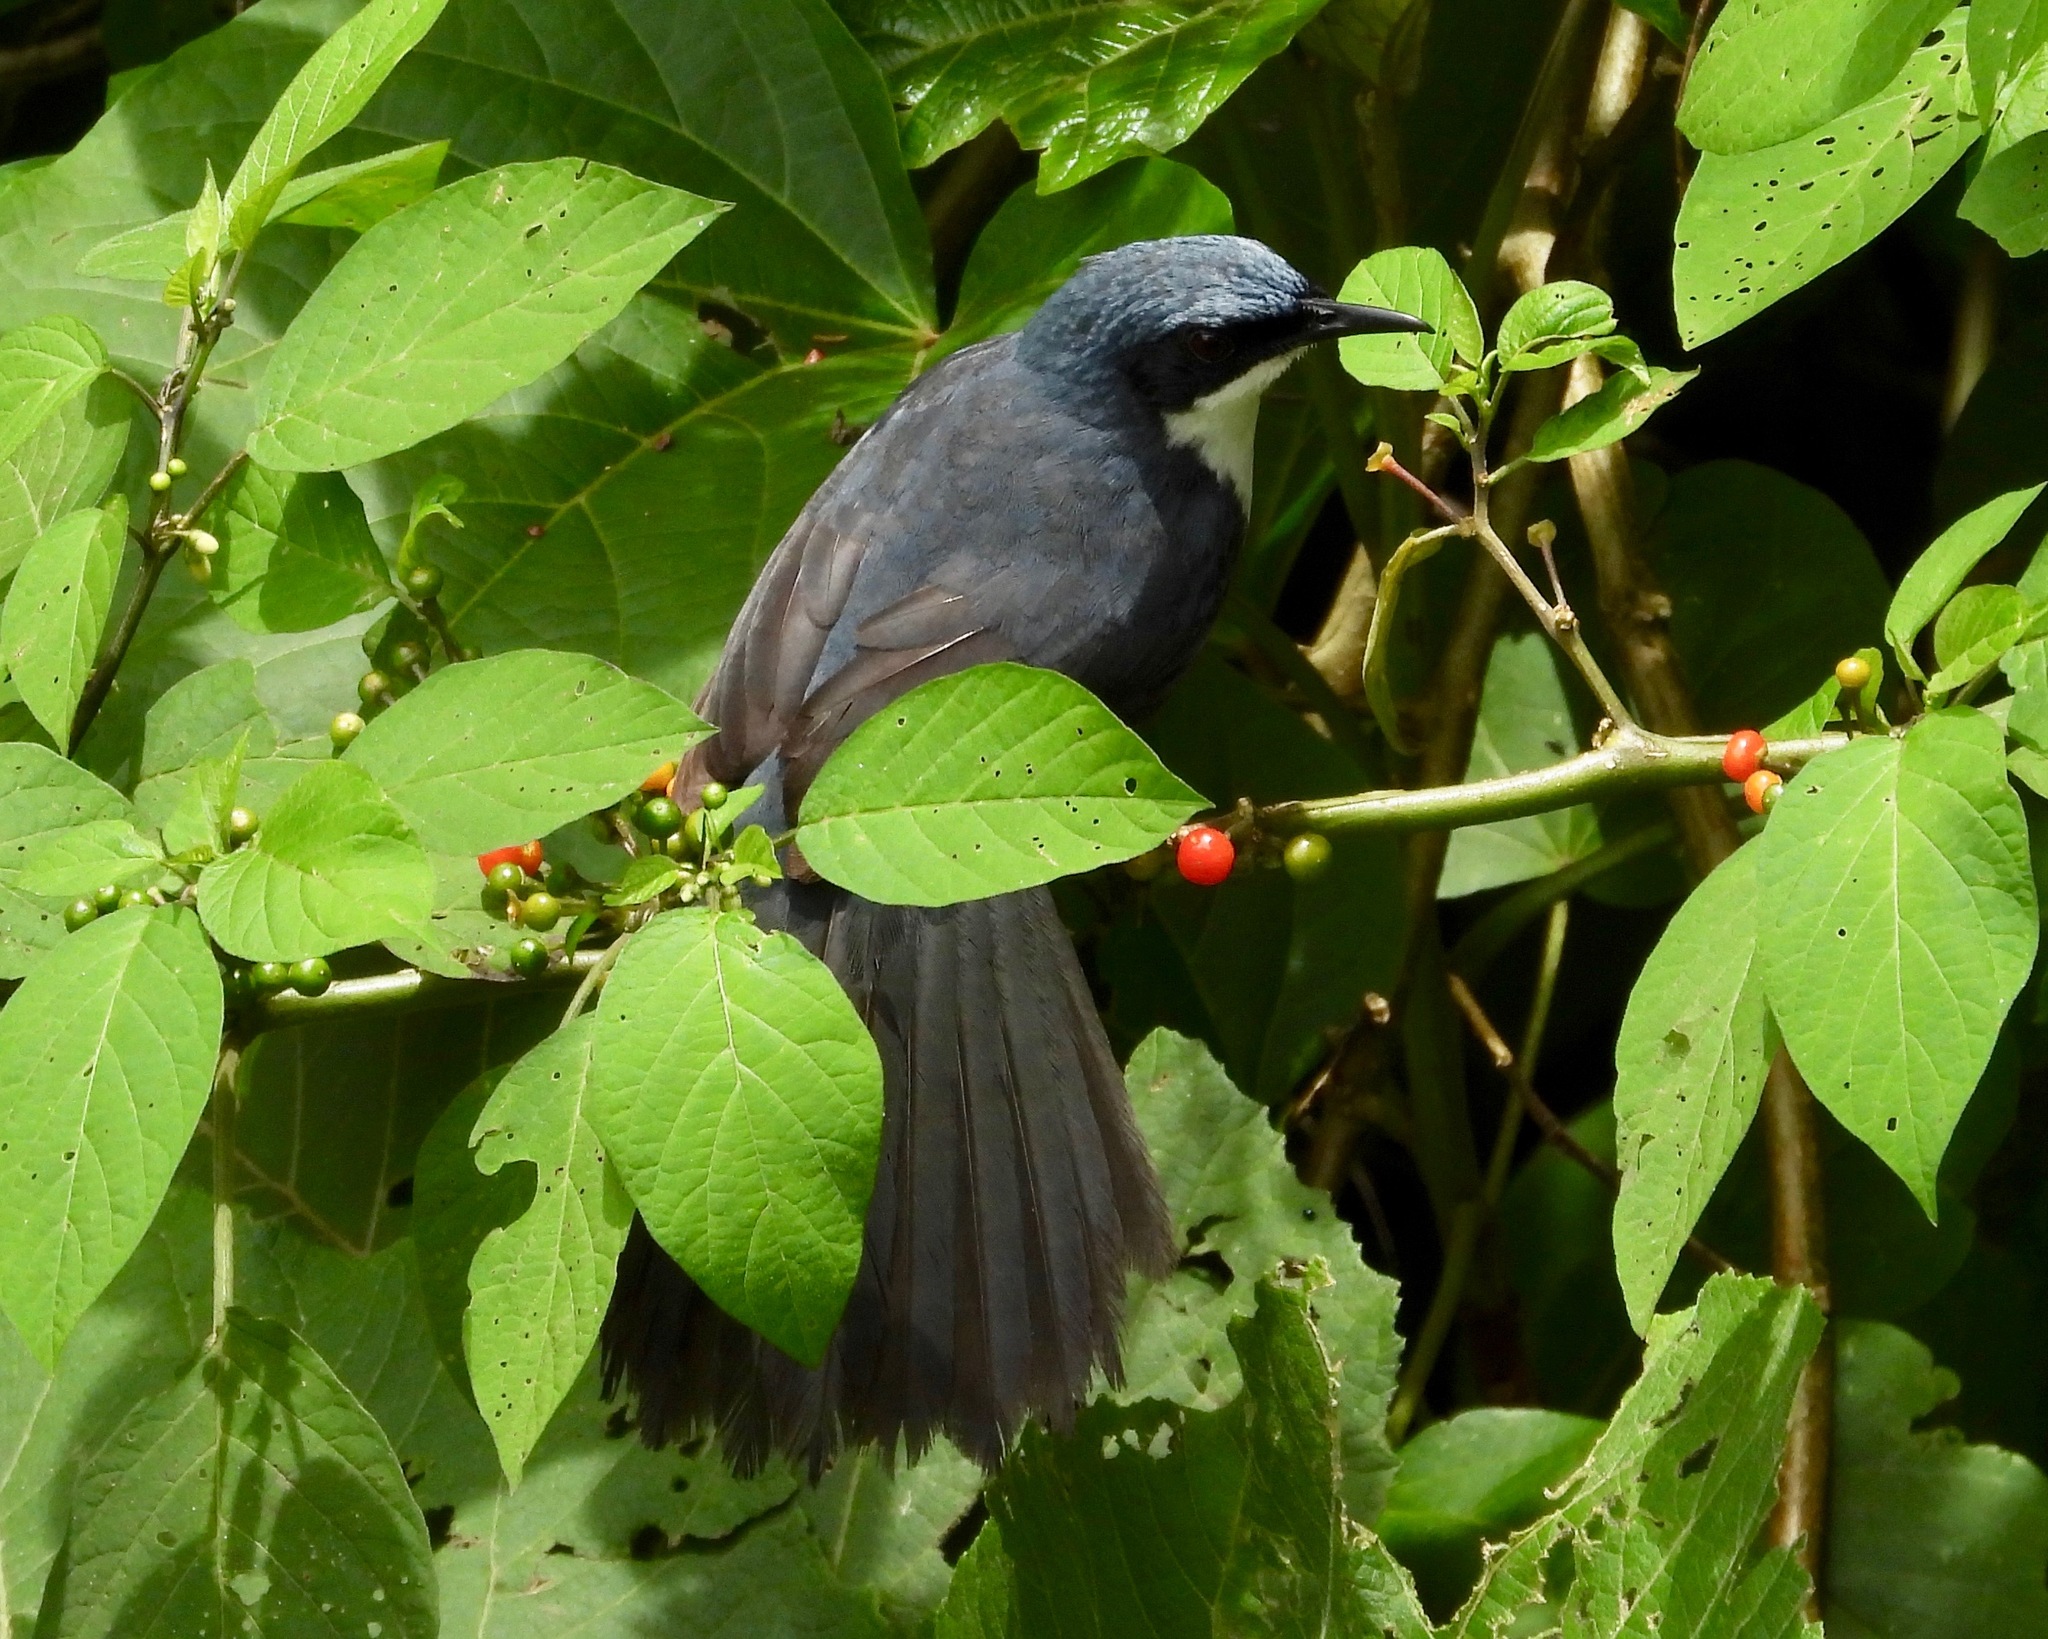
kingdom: Animalia
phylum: Chordata
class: Aves
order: Passeriformes
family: Mimidae
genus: Melanotis
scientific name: Melanotis hypoleucus
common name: Blue-and-white mockingbird
